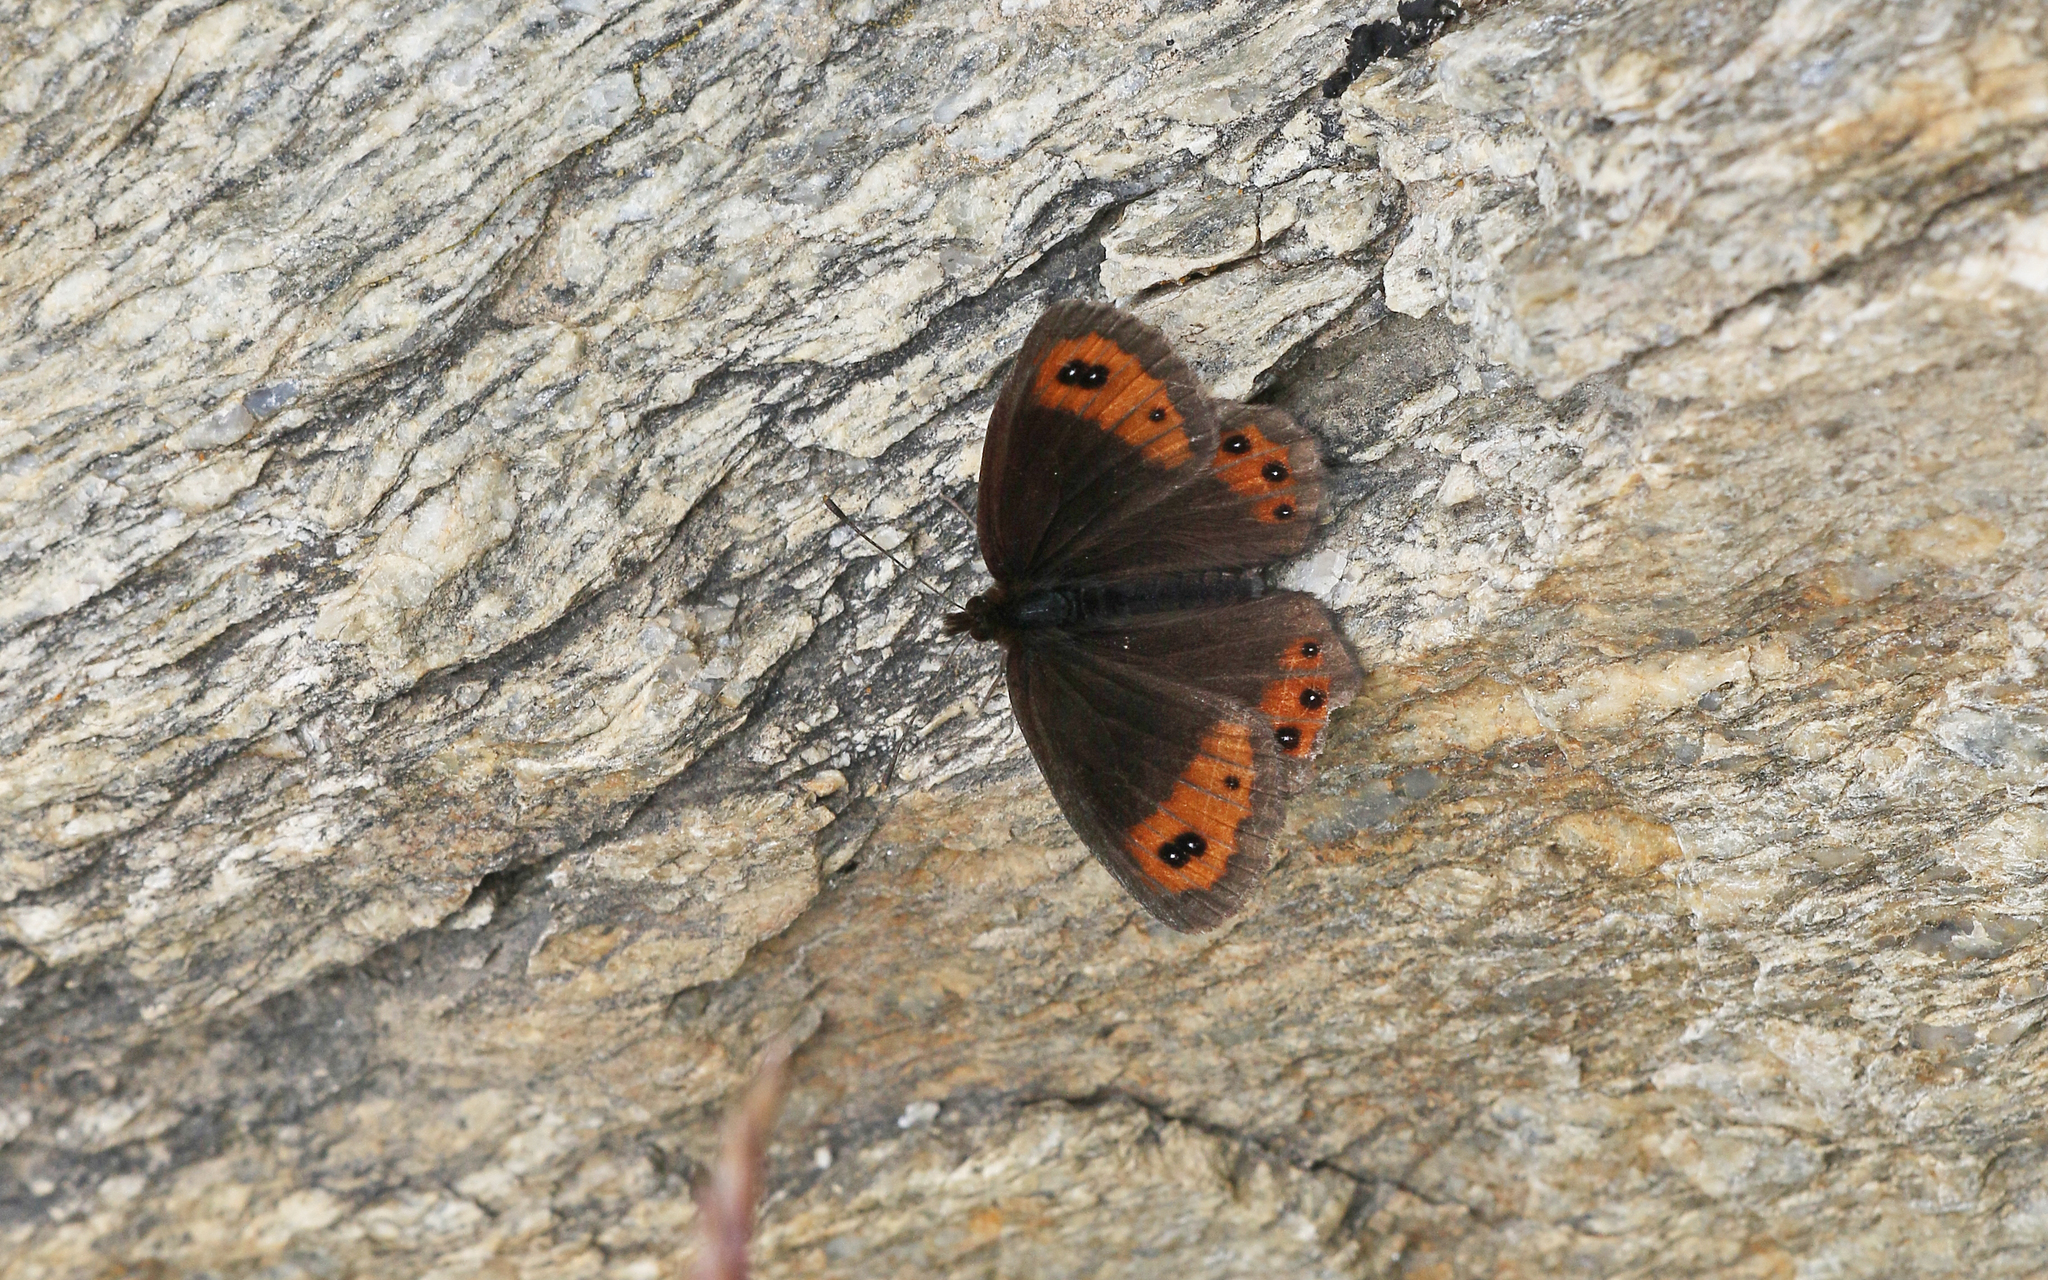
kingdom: Animalia
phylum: Arthropoda
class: Insecta
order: Lepidoptera
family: Nymphalidae
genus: Erebia
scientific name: Erebia montanus
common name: Marbled ringlet
